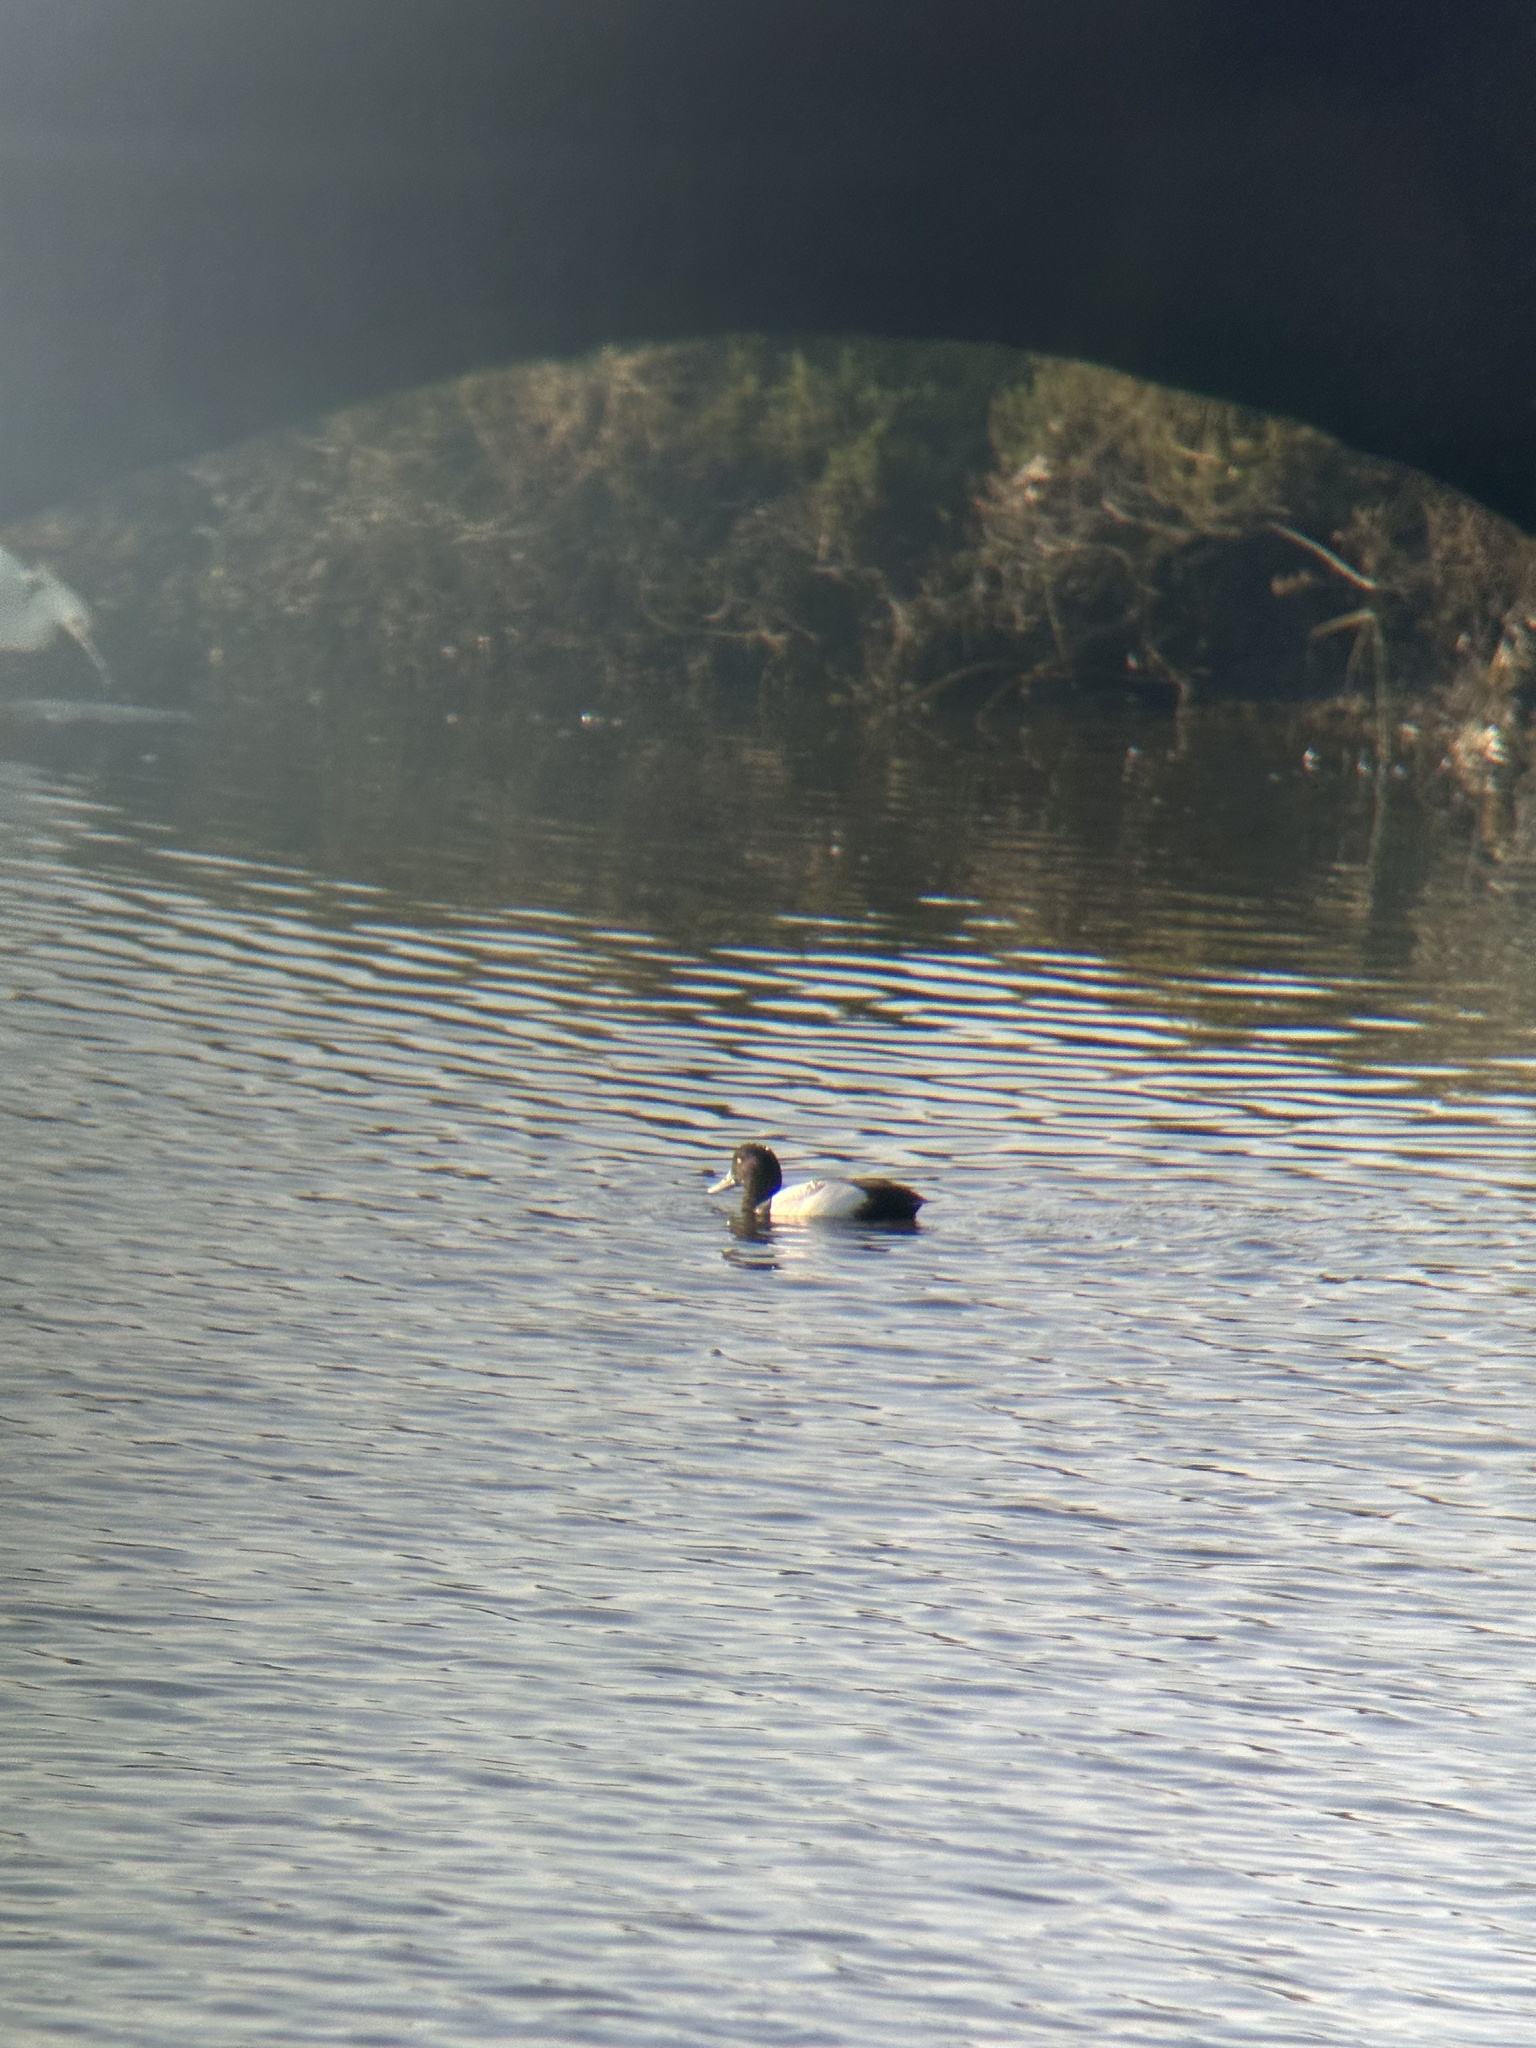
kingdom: Animalia
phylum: Chordata
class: Aves
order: Anseriformes
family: Anatidae
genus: Aythya
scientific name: Aythya marila
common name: Greater scaup
